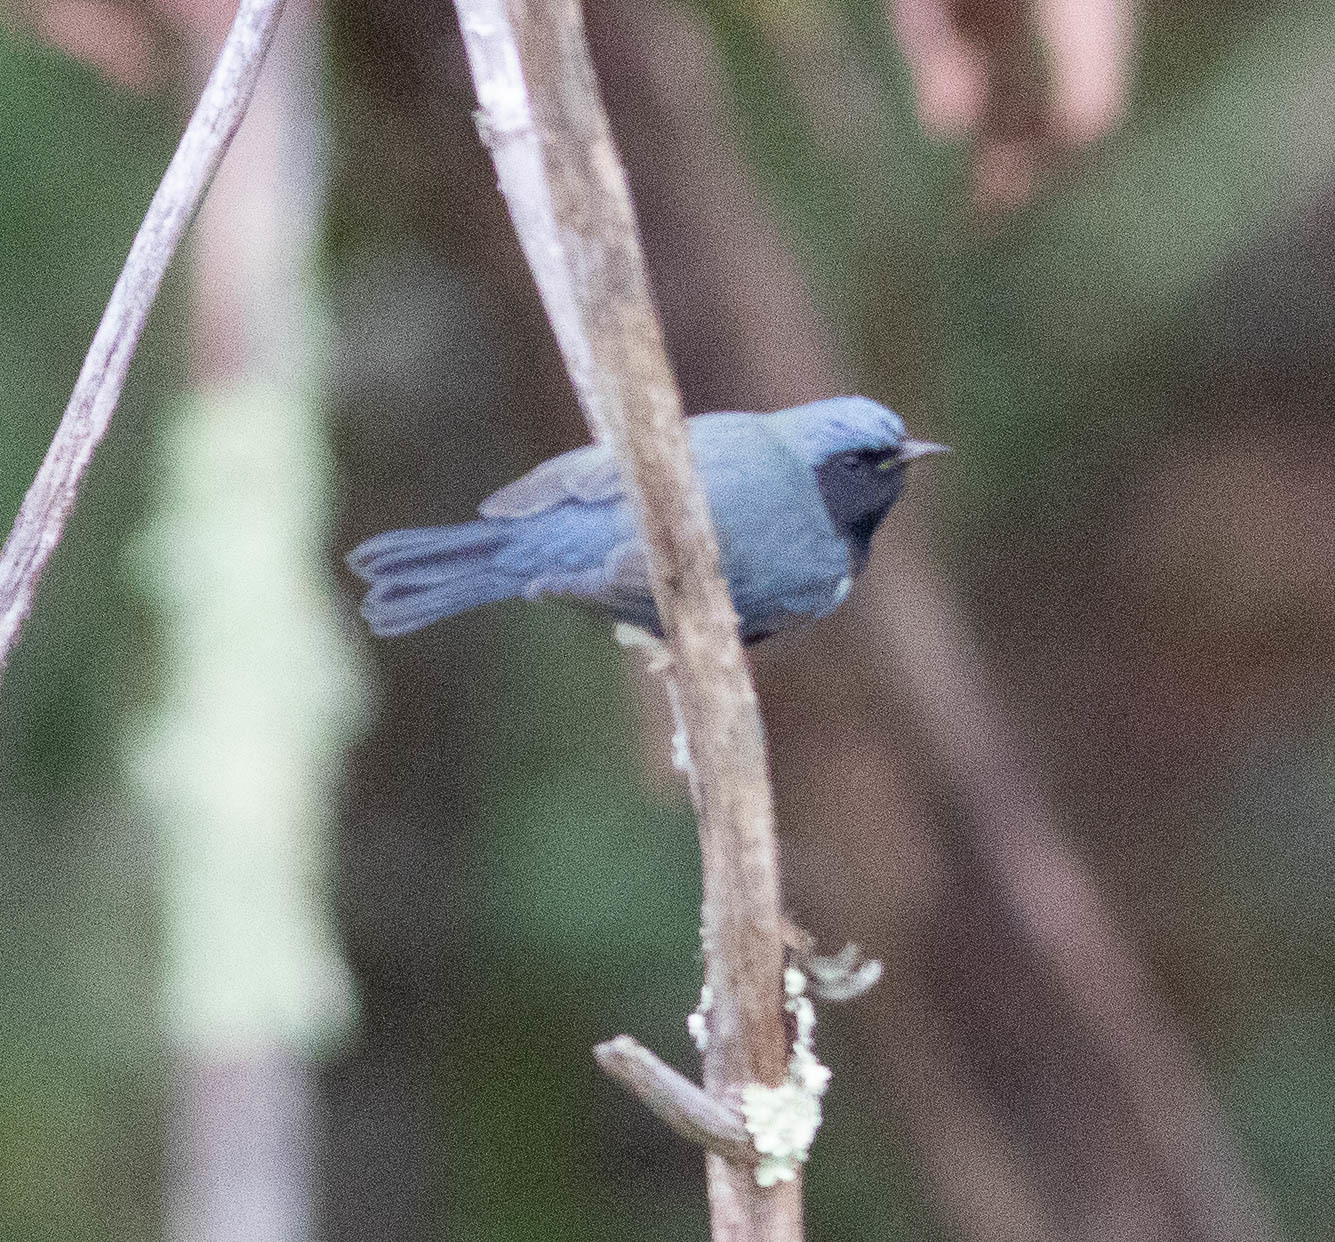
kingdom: Animalia
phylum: Chordata
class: Aves
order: Passeriformes
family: Parulidae
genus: Setophaga
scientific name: Setophaga caerulescens
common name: Black-throated blue warbler
